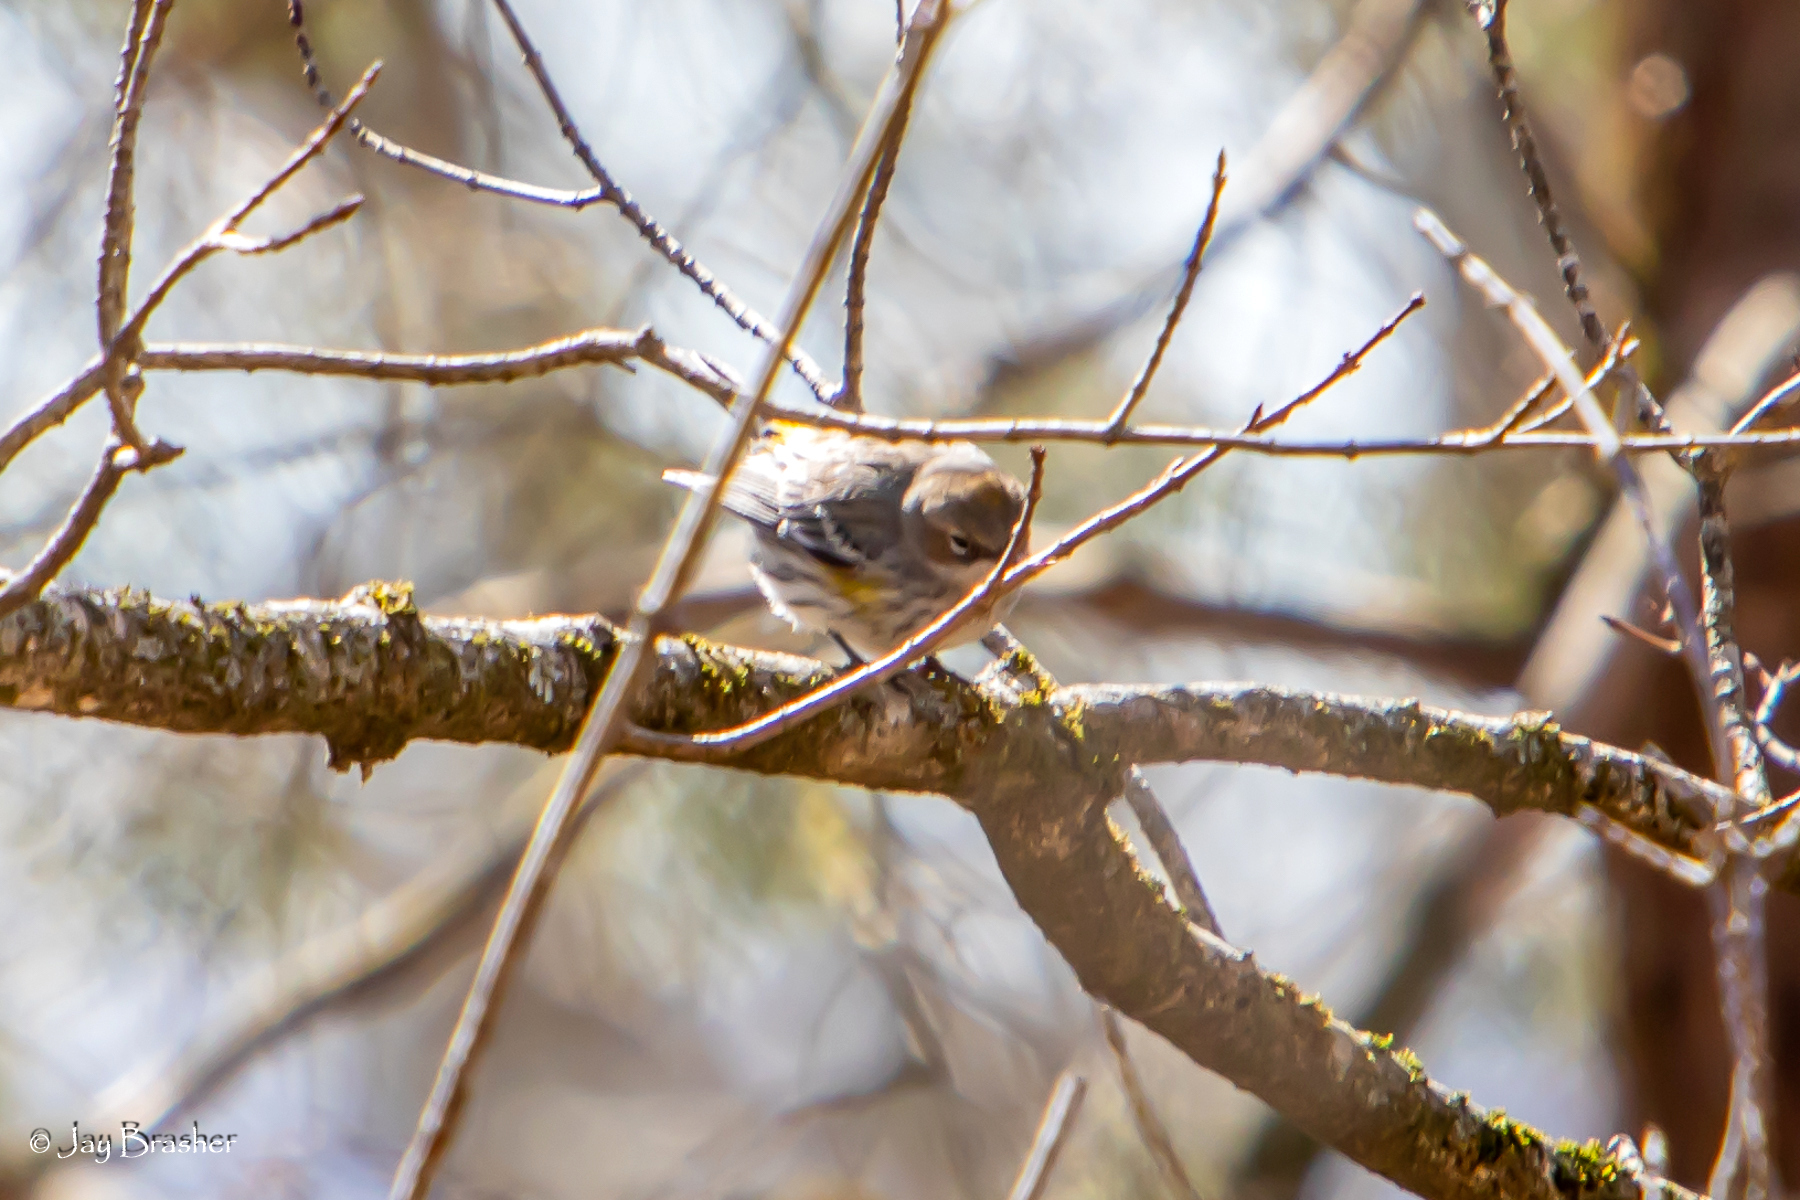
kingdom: Animalia
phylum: Chordata
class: Aves
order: Passeriformes
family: Parulidae
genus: Setophaga
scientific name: Setophaga coronata
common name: Myrtle warbler
